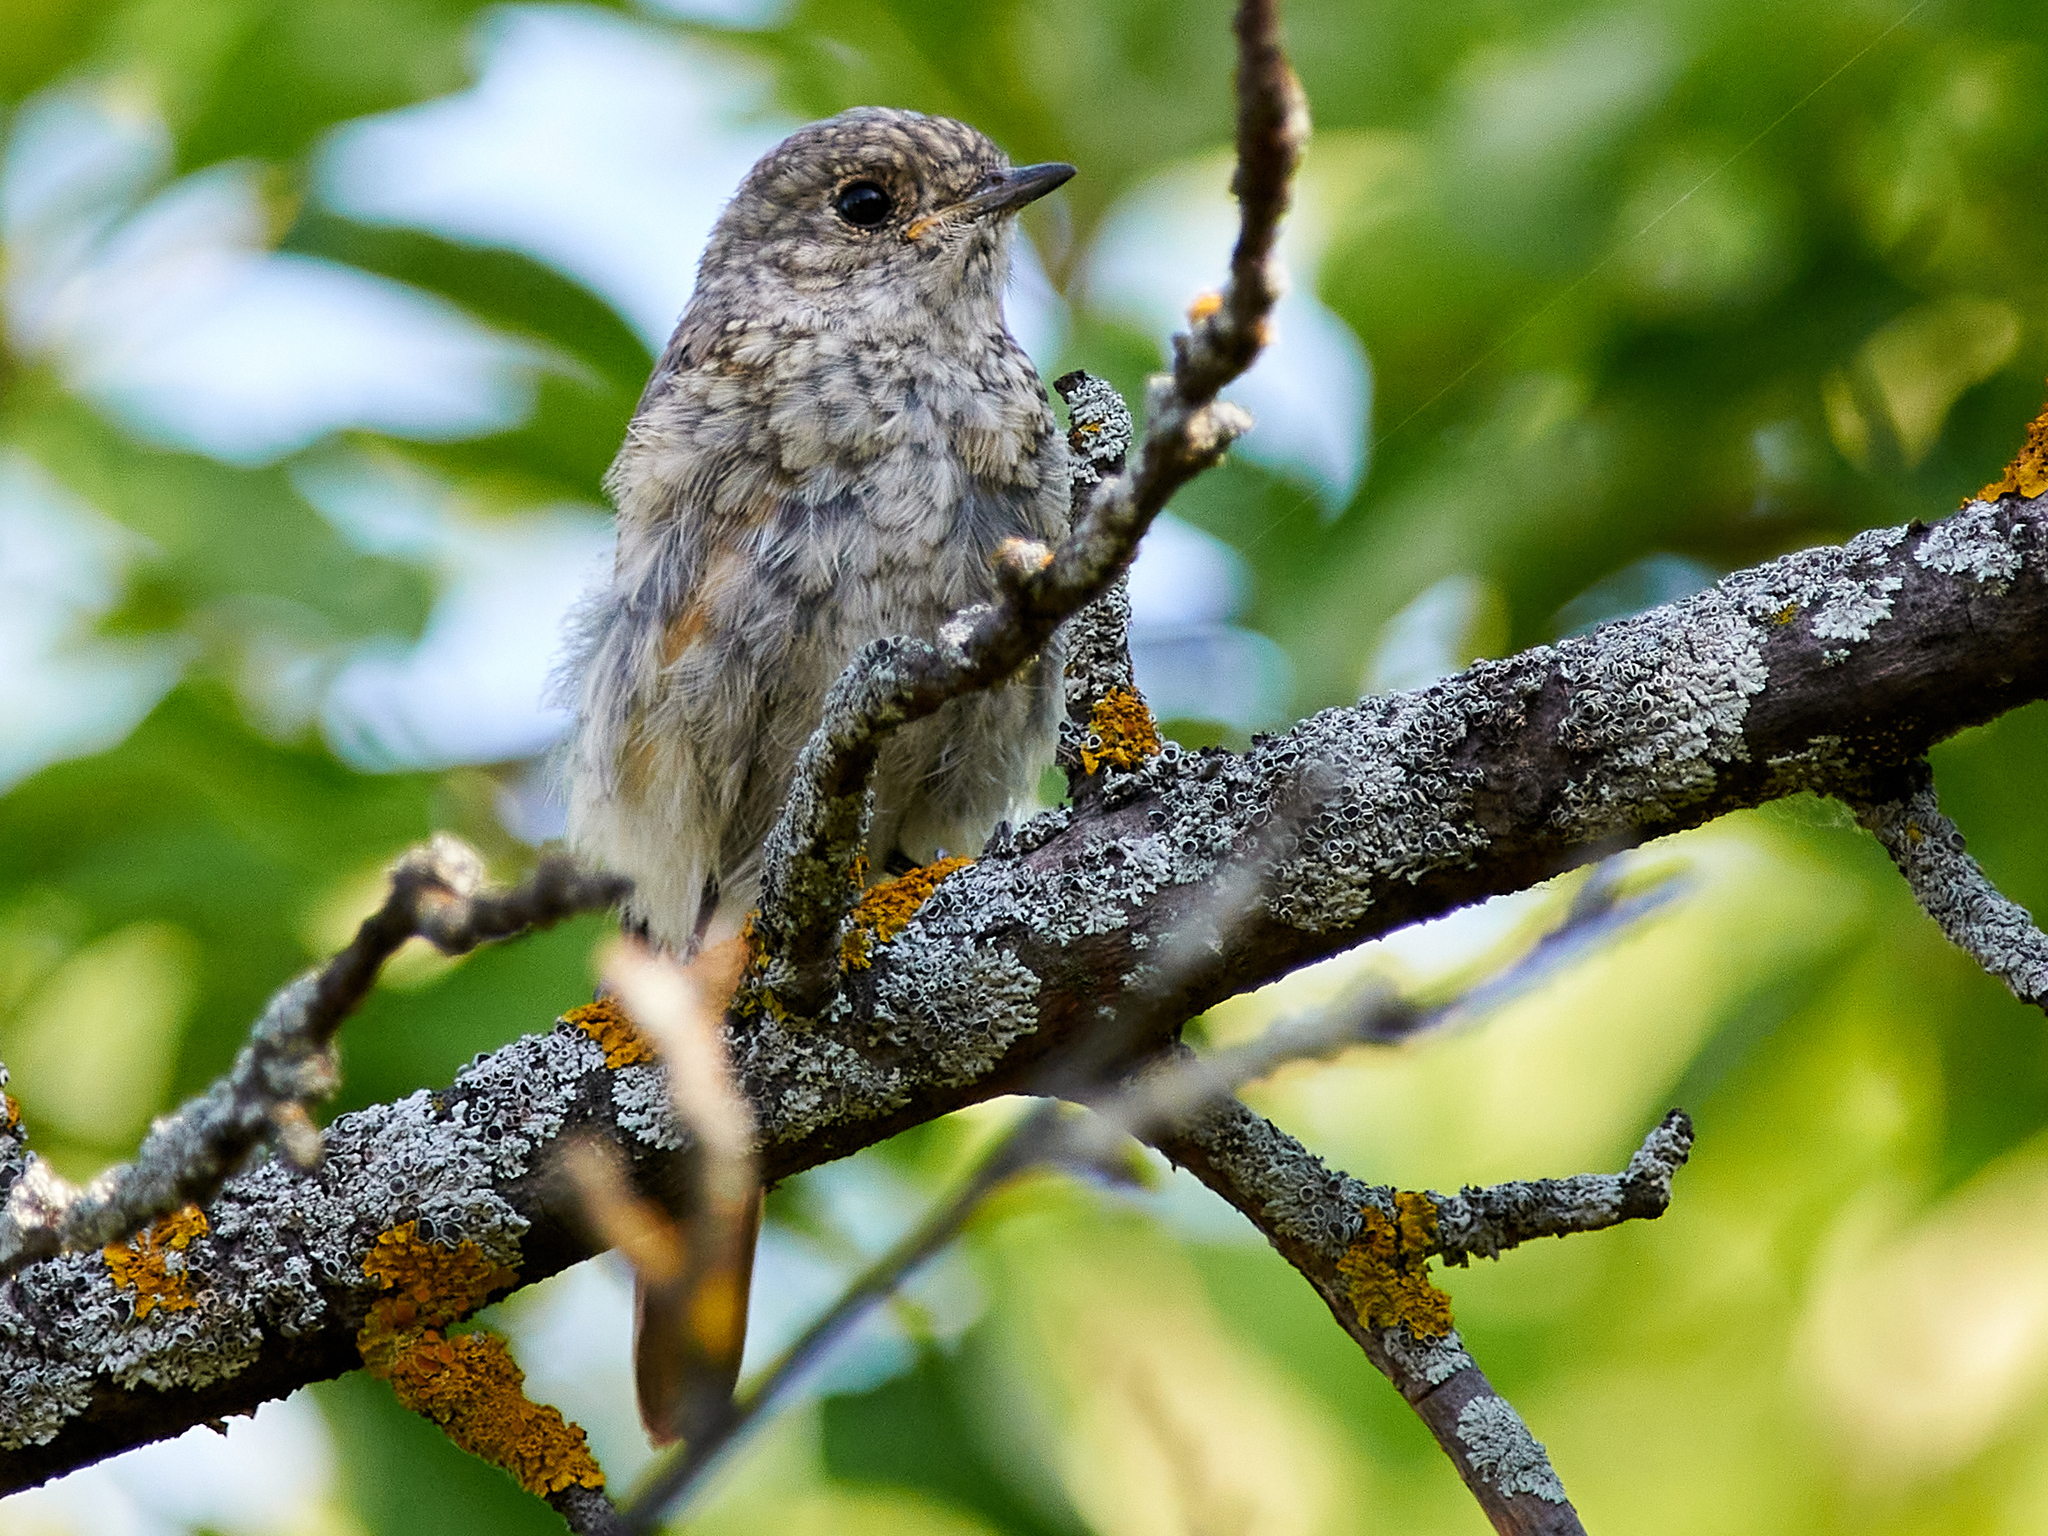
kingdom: Animalia
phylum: Chordata
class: Aves
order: Passeriformes
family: Muscicapidae
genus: Phoenicurus
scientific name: Phoenicurus phoenicurus
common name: Common redstart
